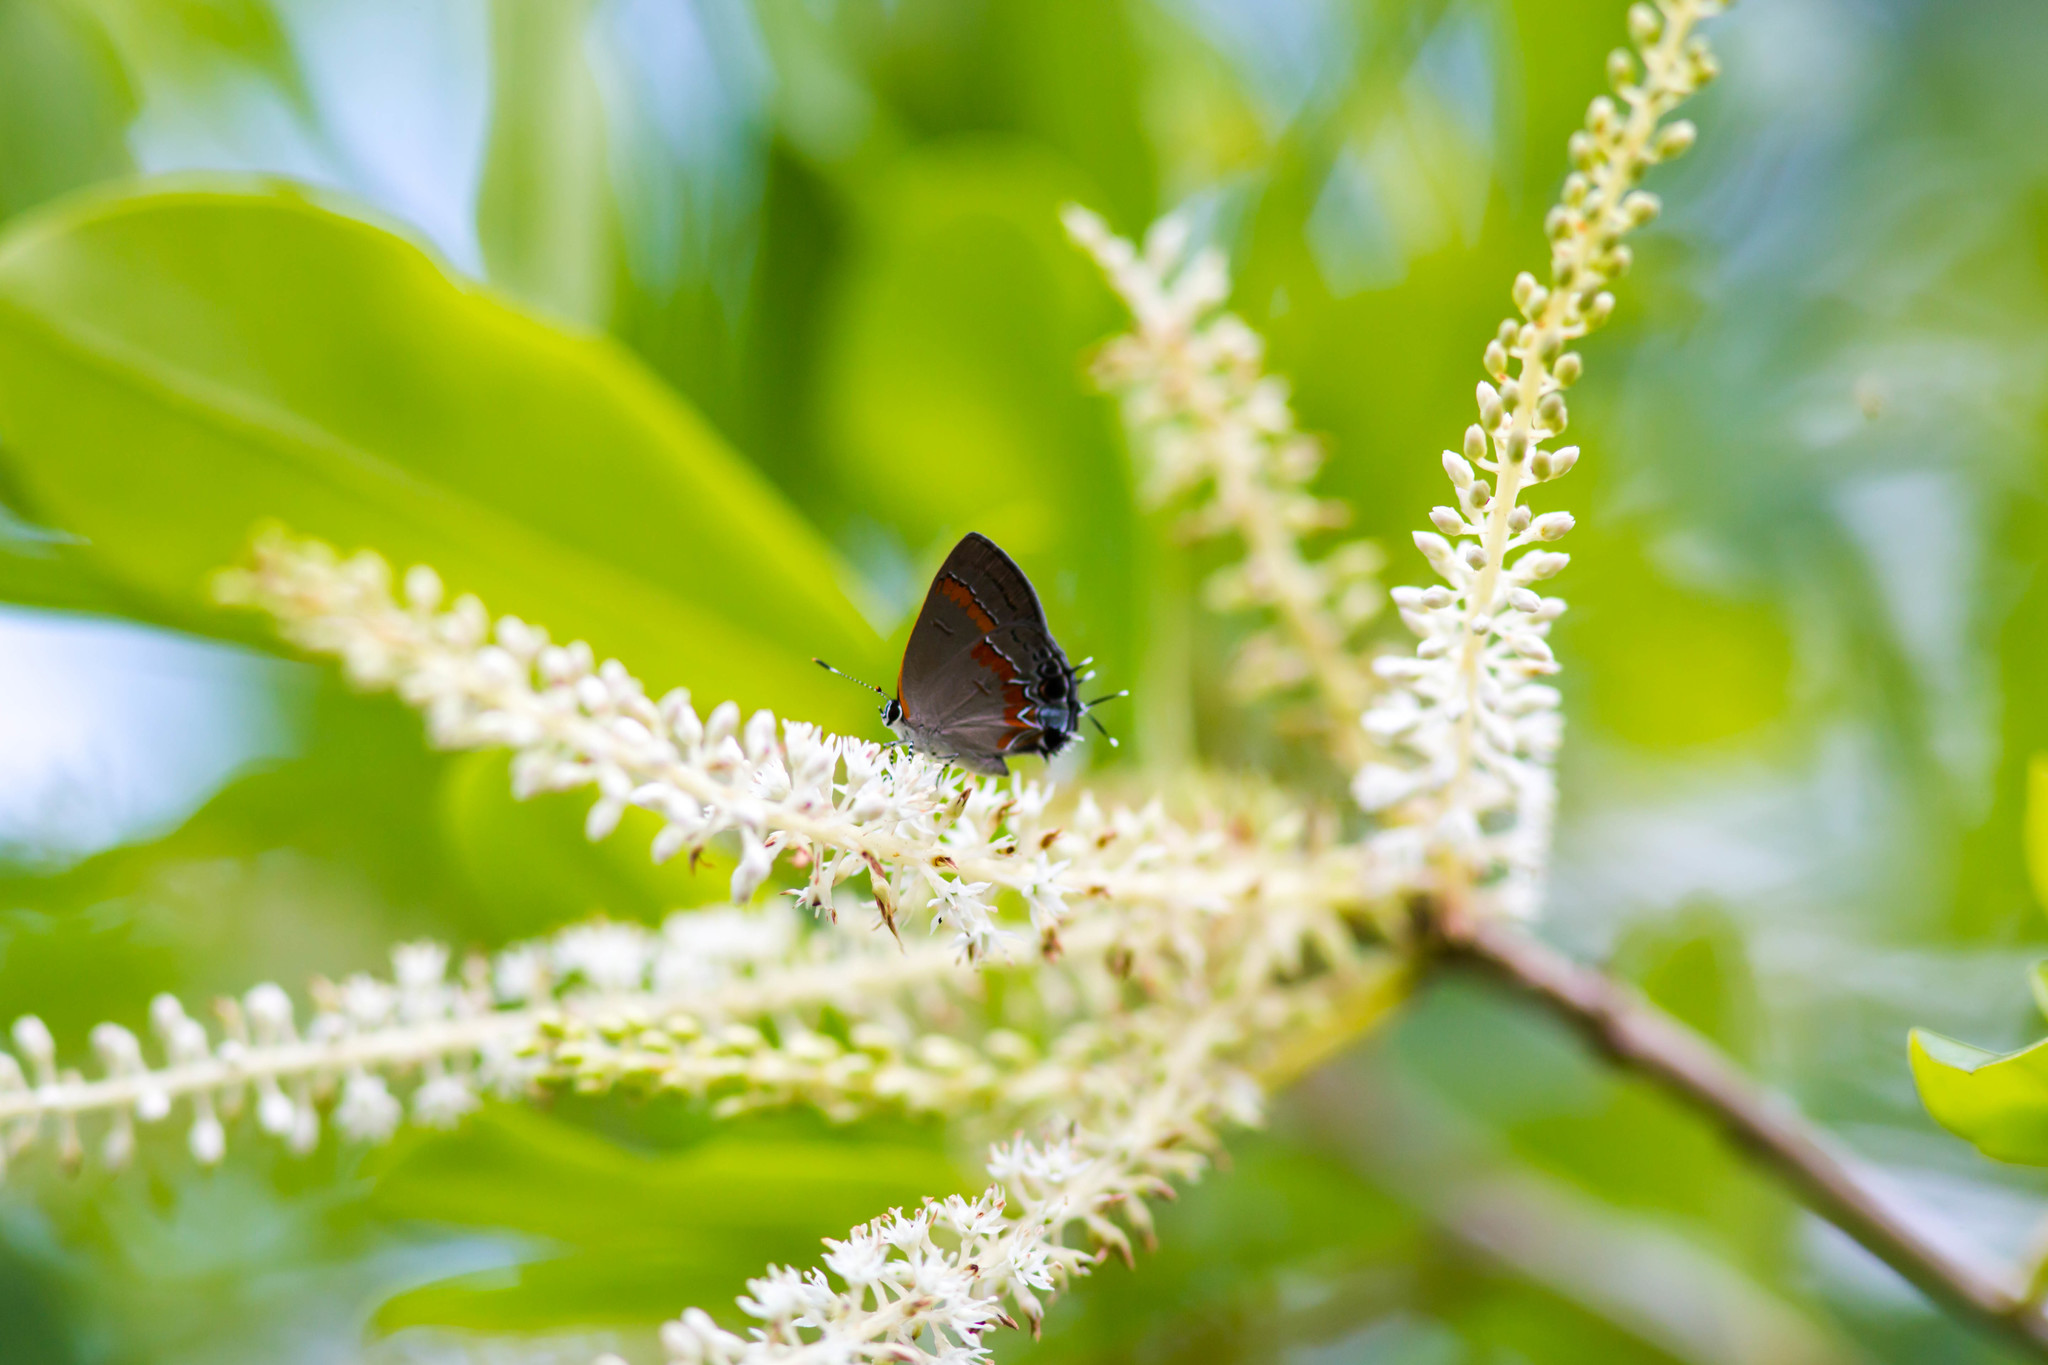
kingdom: Animalia
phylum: Arthropoda
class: Insecta
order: Lepidoptera
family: Lycaenidae
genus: Calycopis
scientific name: Calycopis cecrops
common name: Red-banded hairstreak
